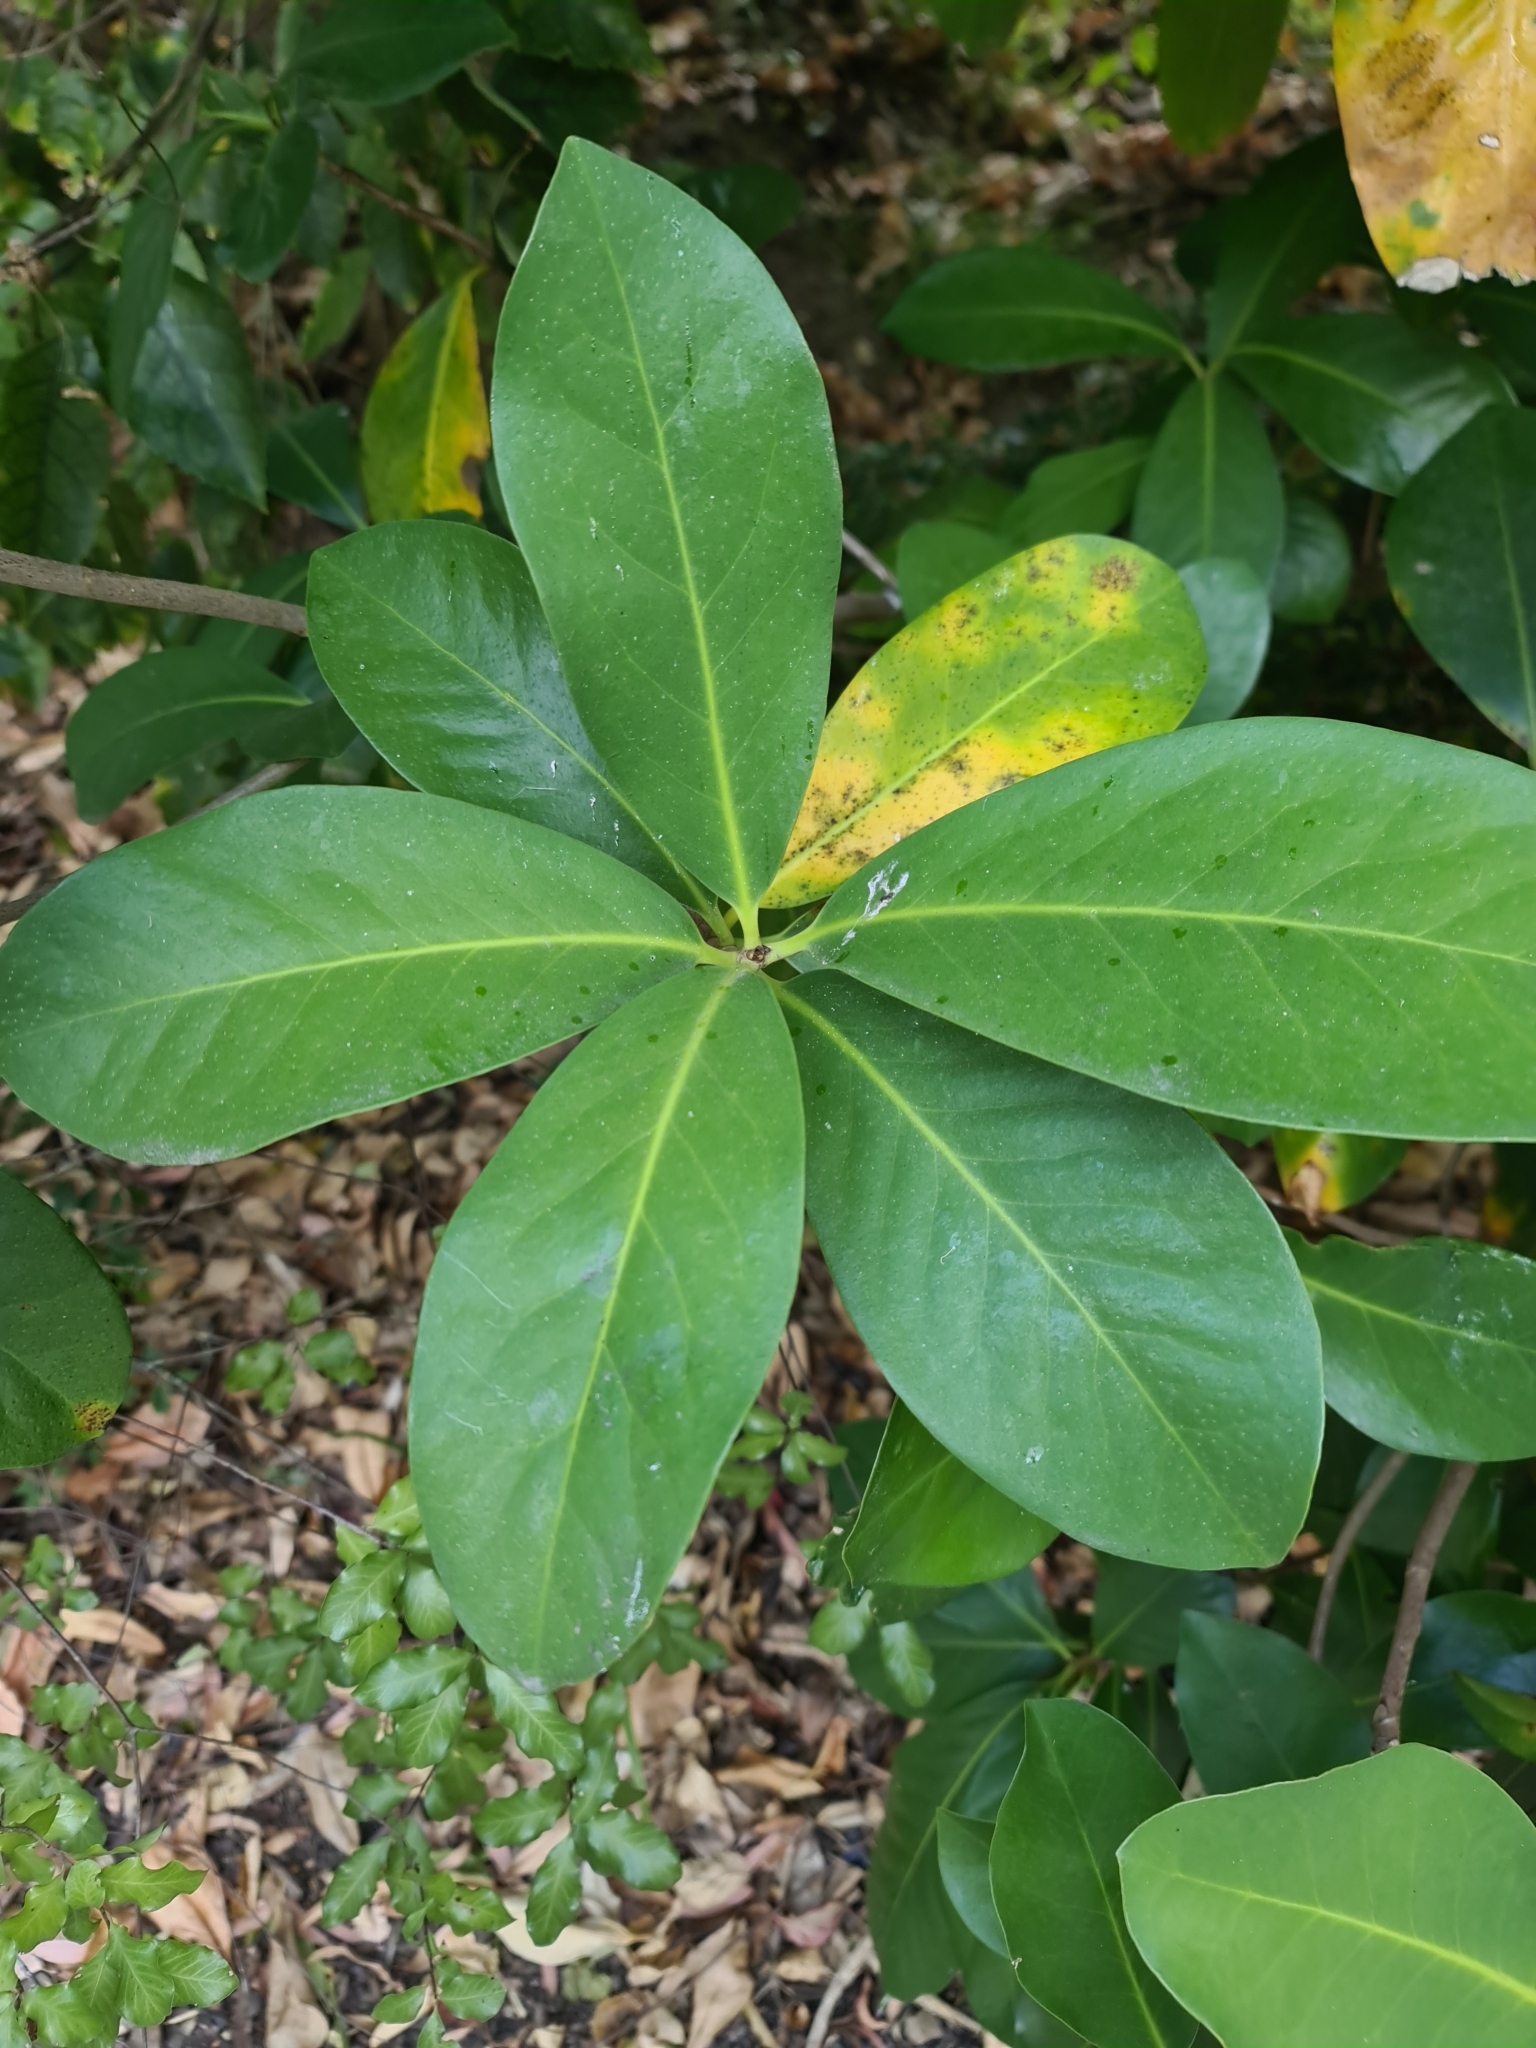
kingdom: Plantae
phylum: Tracheophyta
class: Magnoliopsida
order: Cucurbitales
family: Corynocarpaceae
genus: Corynocarpus
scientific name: Corynocarpus laevigatus
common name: New zealand laurel
